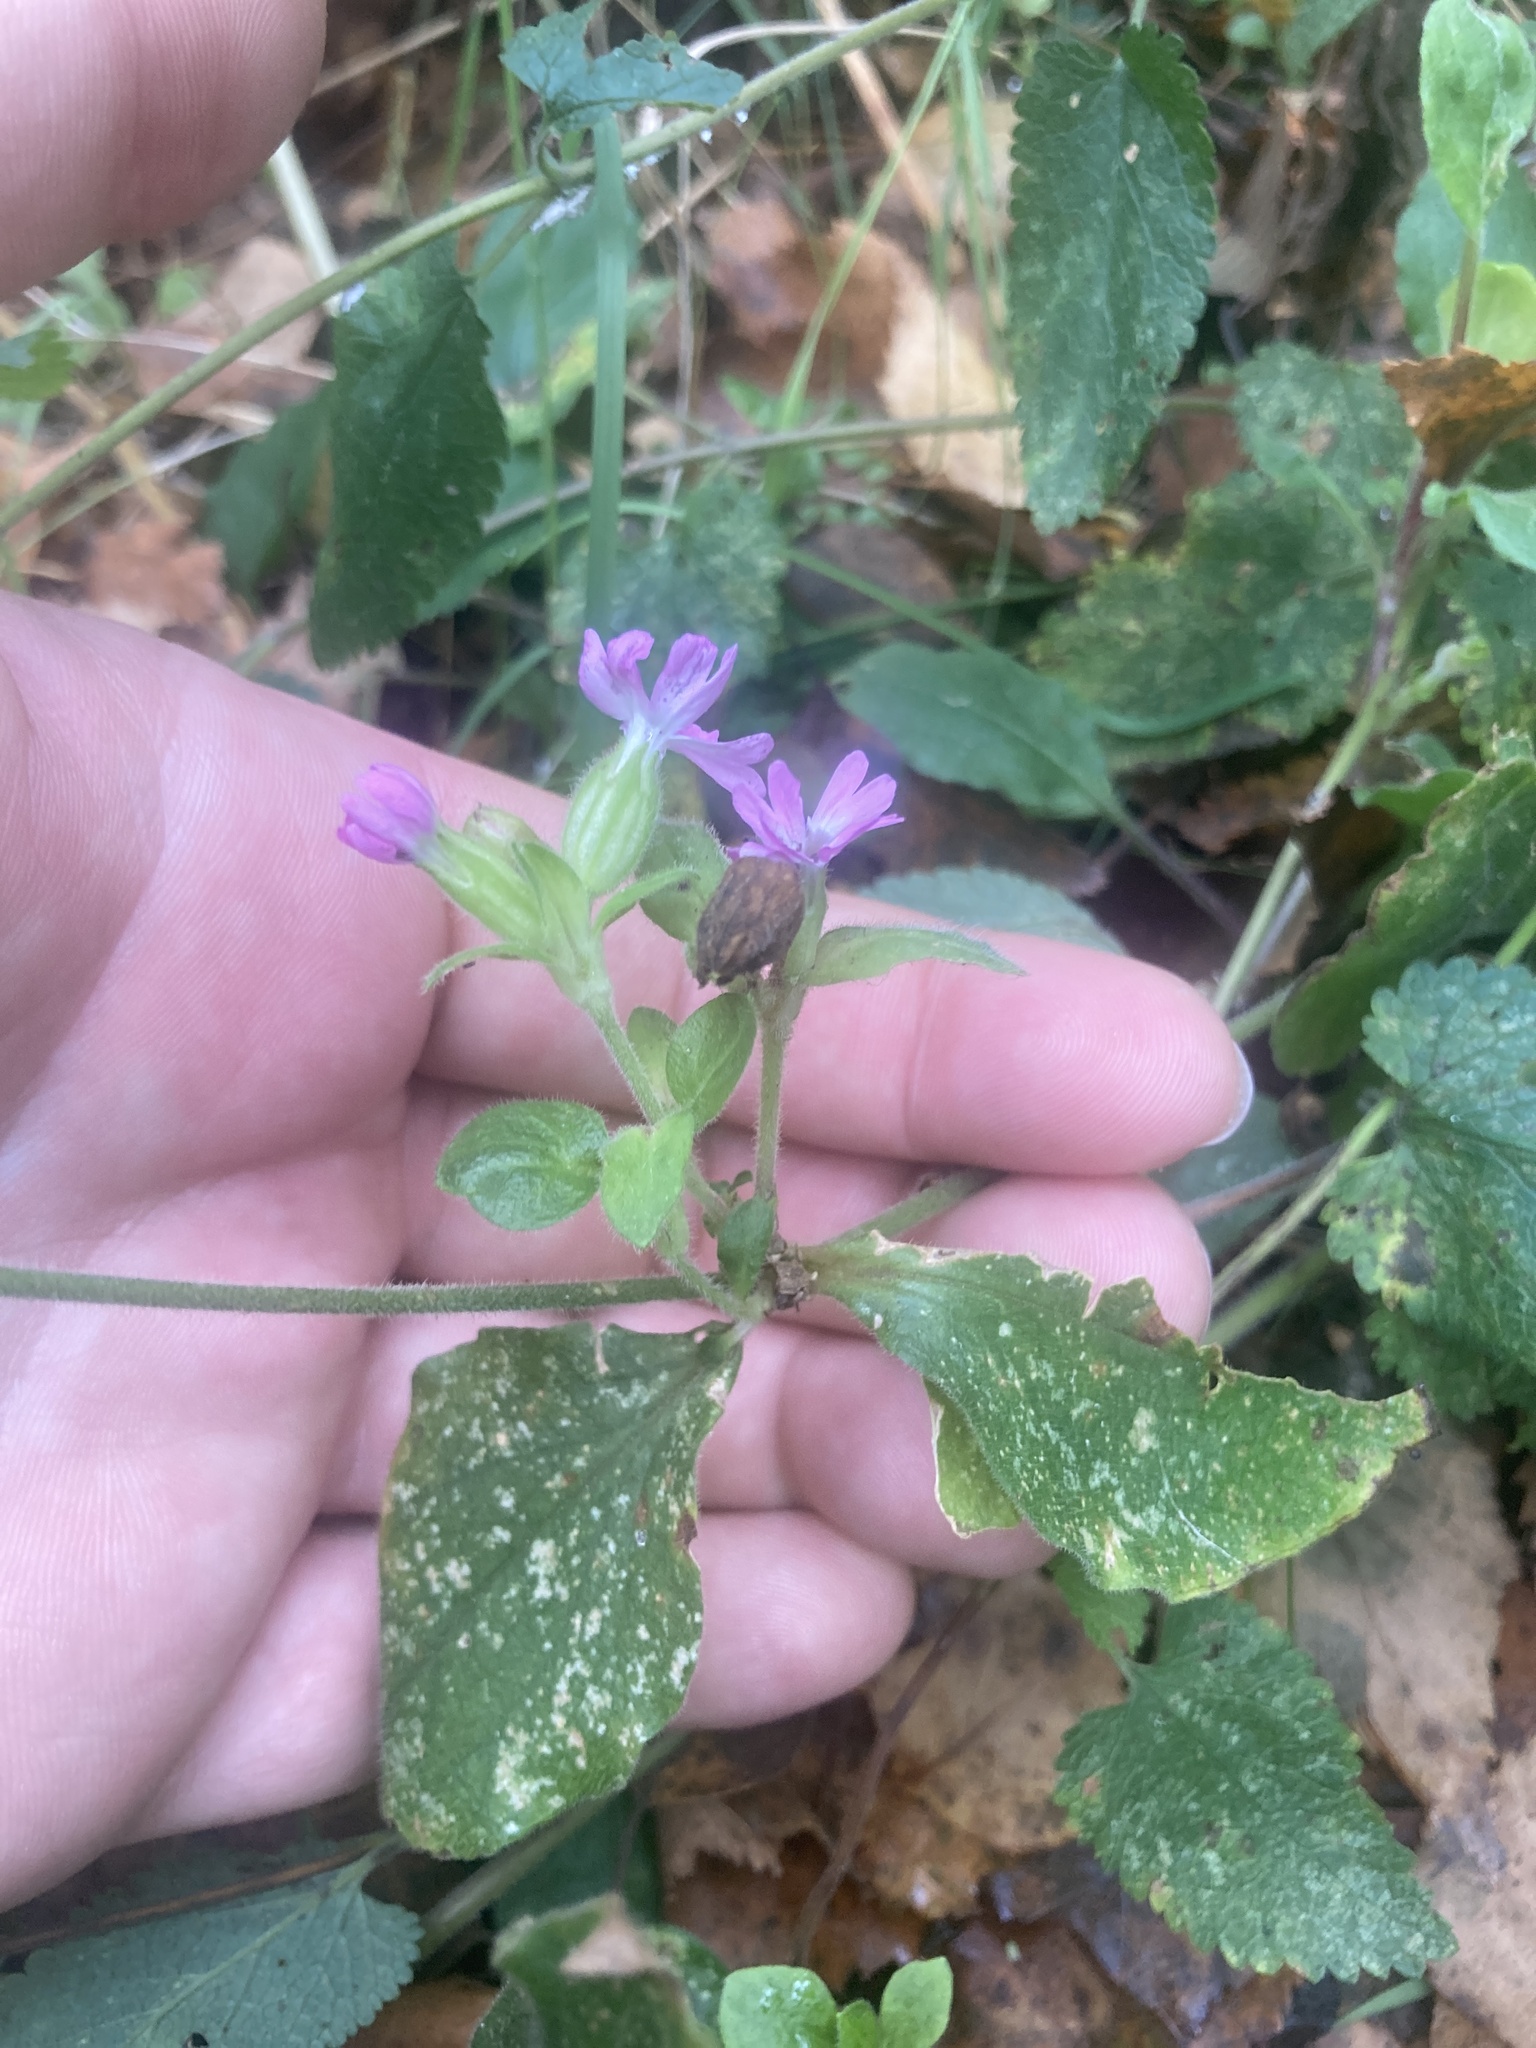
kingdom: Plantae
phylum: Tracheophyta
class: Magnoliopsida
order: Caryophyllales
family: Caryophyllaceae
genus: Silene
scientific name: Silene dioica
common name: Red campion
